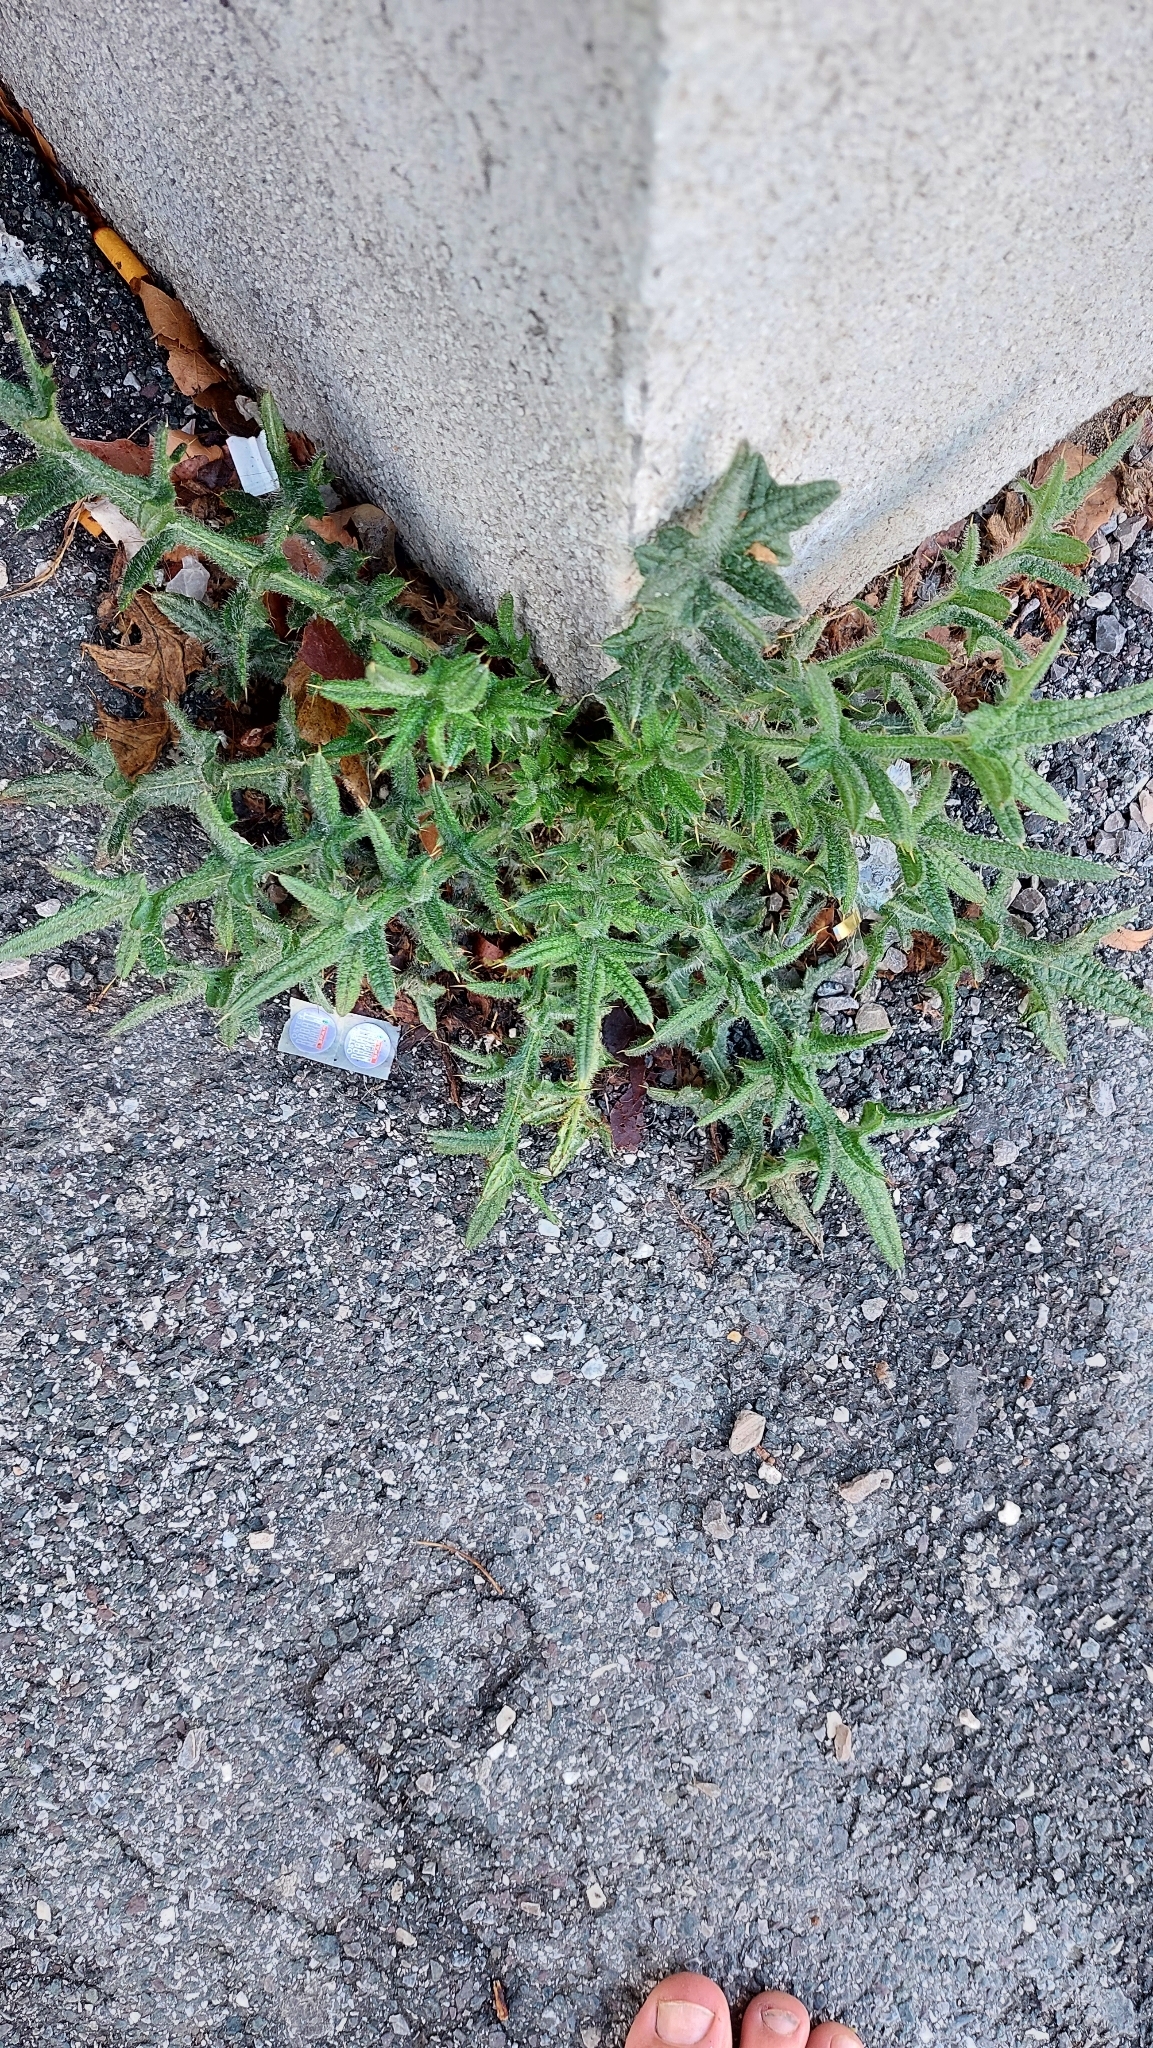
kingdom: Plantae
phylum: Tracheophyta
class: Magnoliopsida
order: Asterales
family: Asteraceae
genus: Cirsium
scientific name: Cirsium vulgare
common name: Bull thistle
